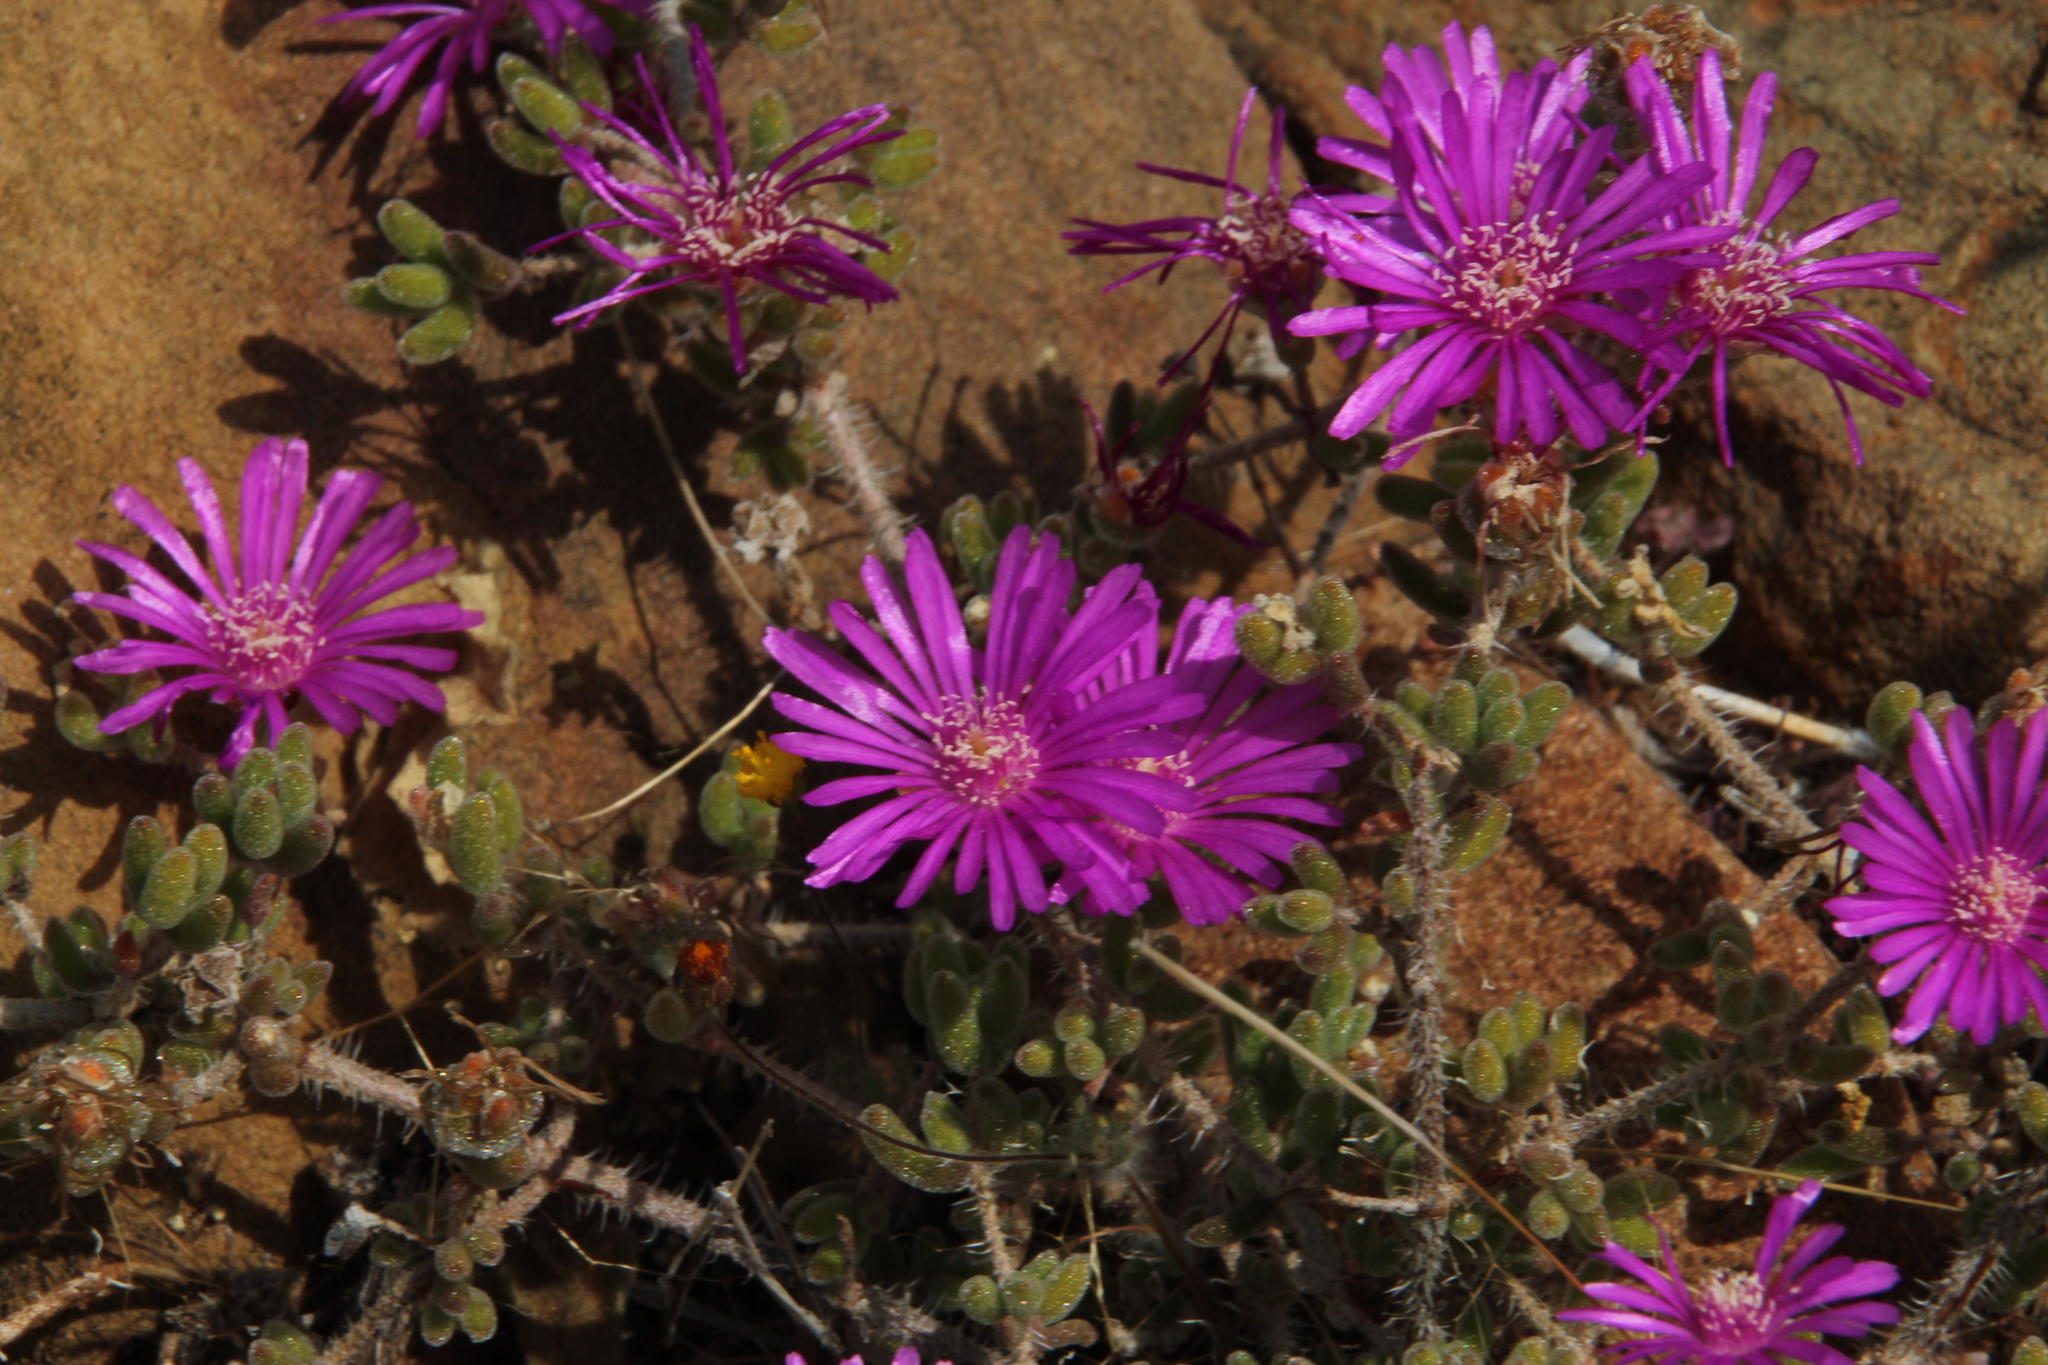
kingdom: Plantae
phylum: Tracheophyta
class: Magnoliopsida
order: Caryophyllales
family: Aizoaceae
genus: Drosanthemum
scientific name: Drosanthemum hispidum
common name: Hairy dewflower
